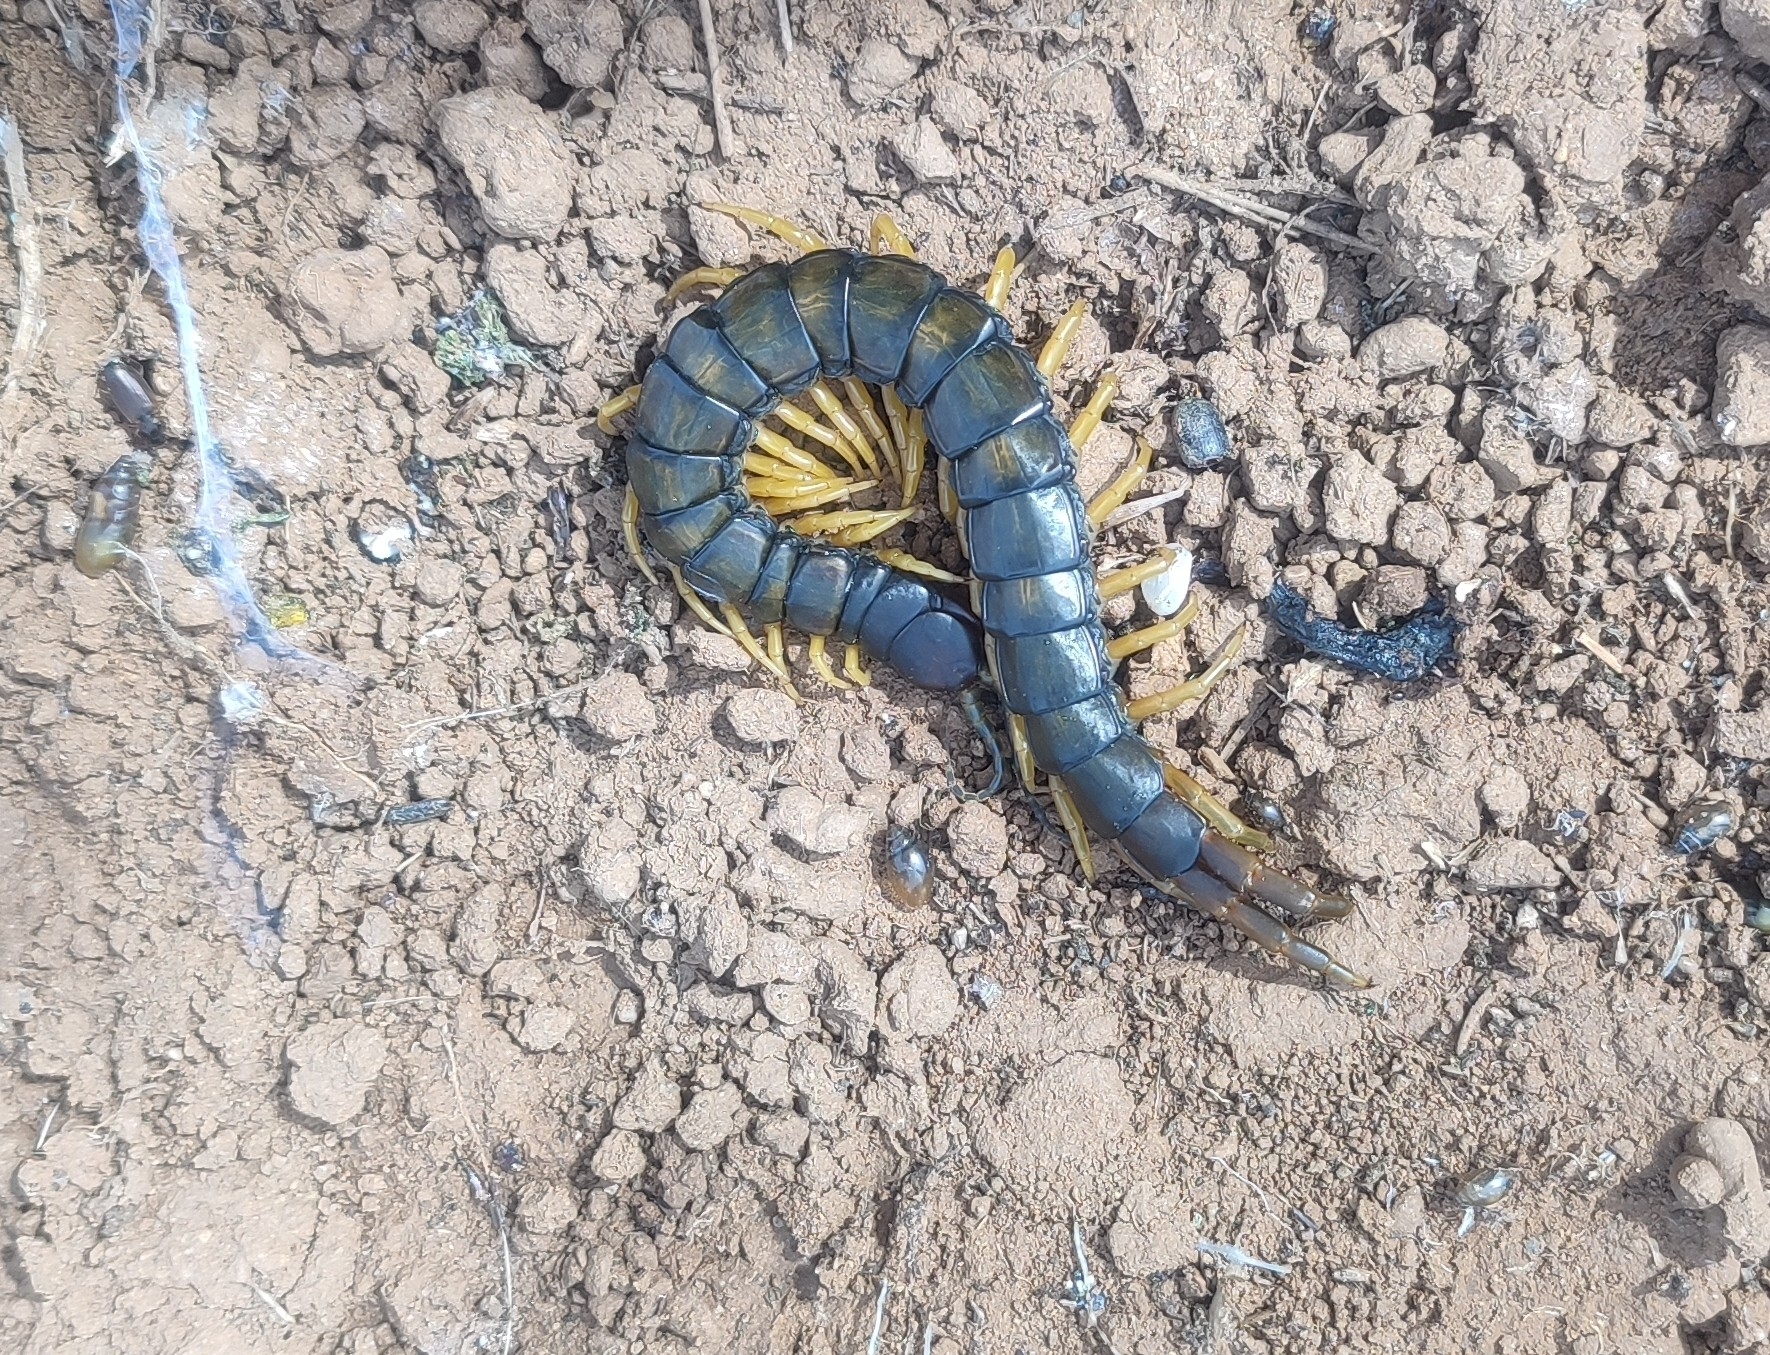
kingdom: Animalia
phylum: Arthropoda
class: Chilopoda
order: Scolopendromorpha
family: Scolopendridae
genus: Scolopendra
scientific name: Scolopendra cingulata
